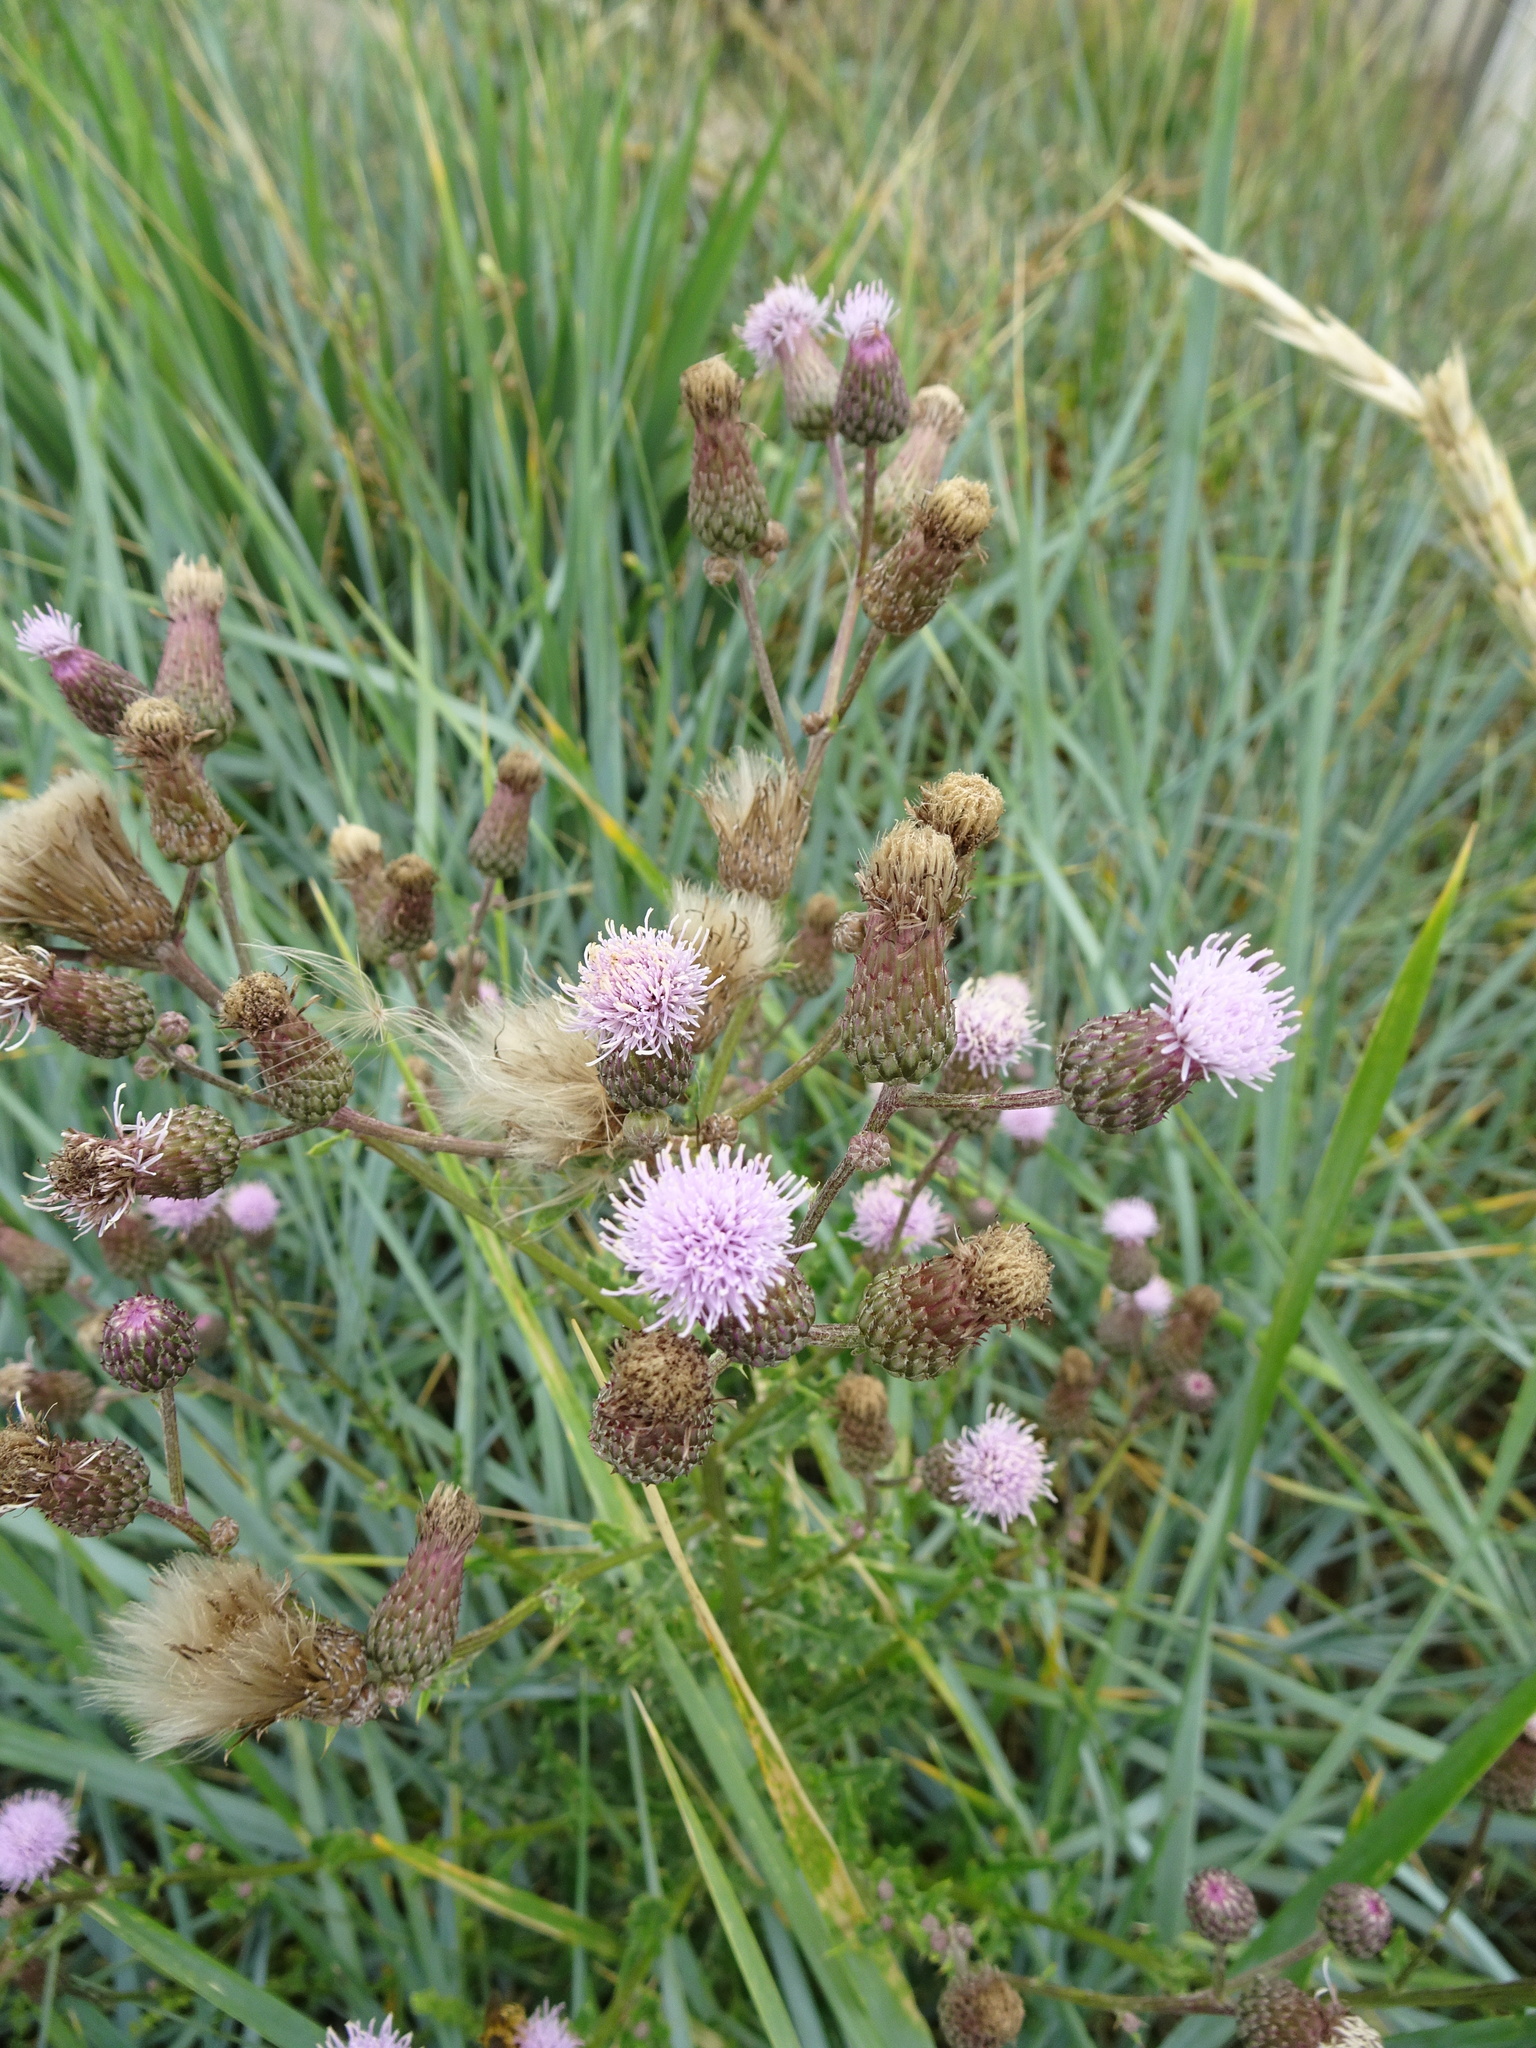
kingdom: Plantae
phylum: Tracheophyta
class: Magnoliopsida
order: Asterales
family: Asteraceae
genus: Cirsium
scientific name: Cirsium arvense
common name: Creeping thistle
